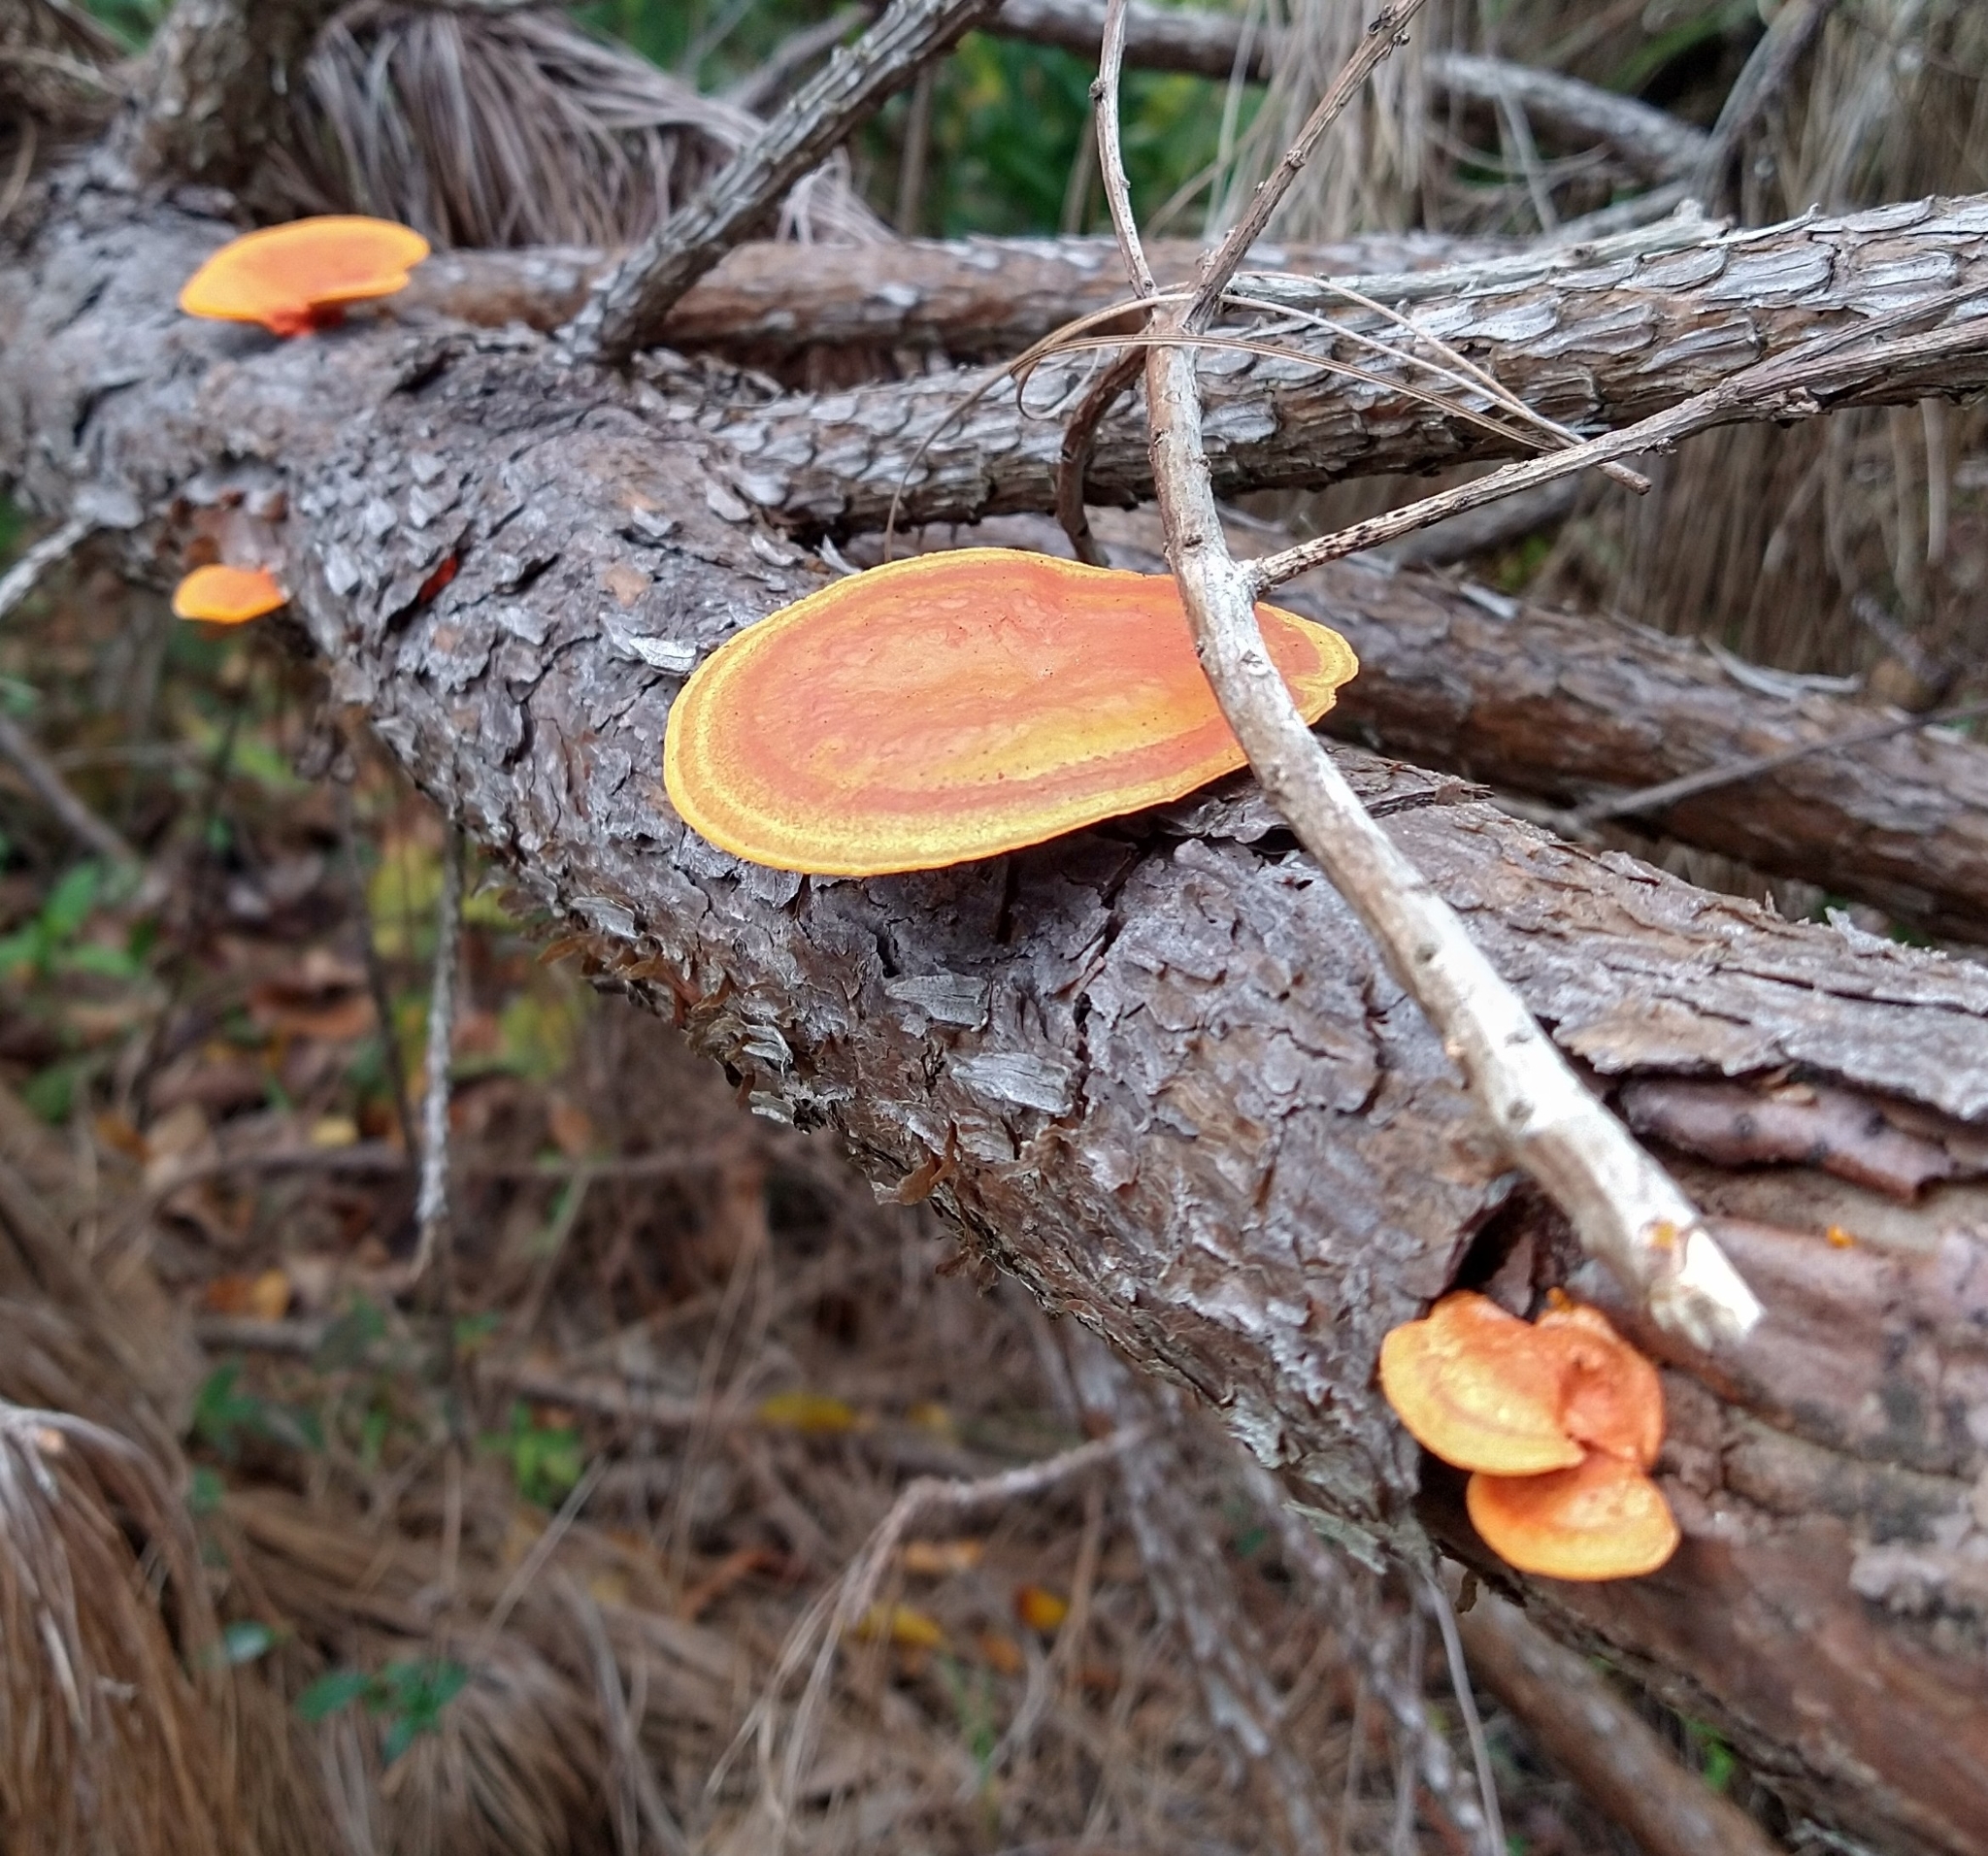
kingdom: Fungi
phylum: Basidiomycota
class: Agaricomycetes
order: Polyporales
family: Polyporaceae
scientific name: Polyporaceae
